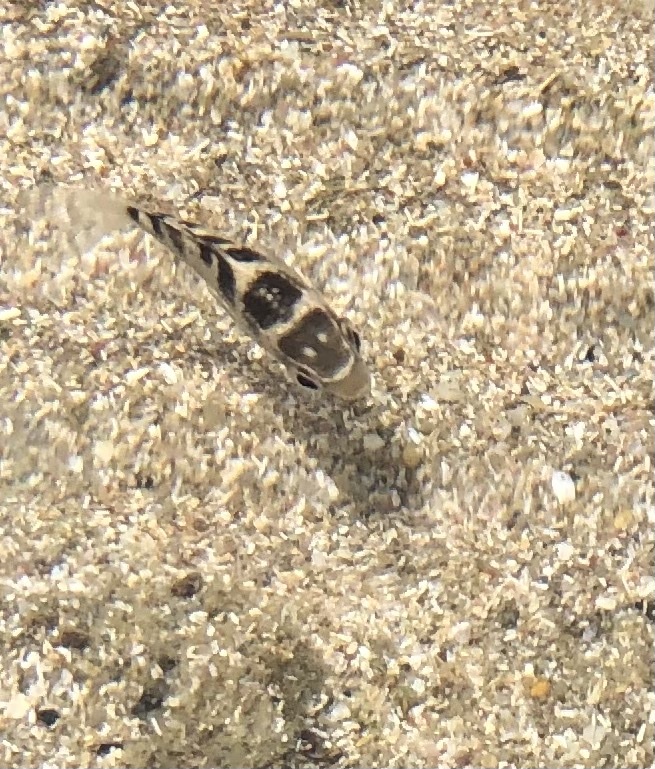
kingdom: Animalia
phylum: Chordata
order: Perciformes
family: Pomacentridae
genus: Abudefduf
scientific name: Abudefduf taurus
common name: Night sergeant
